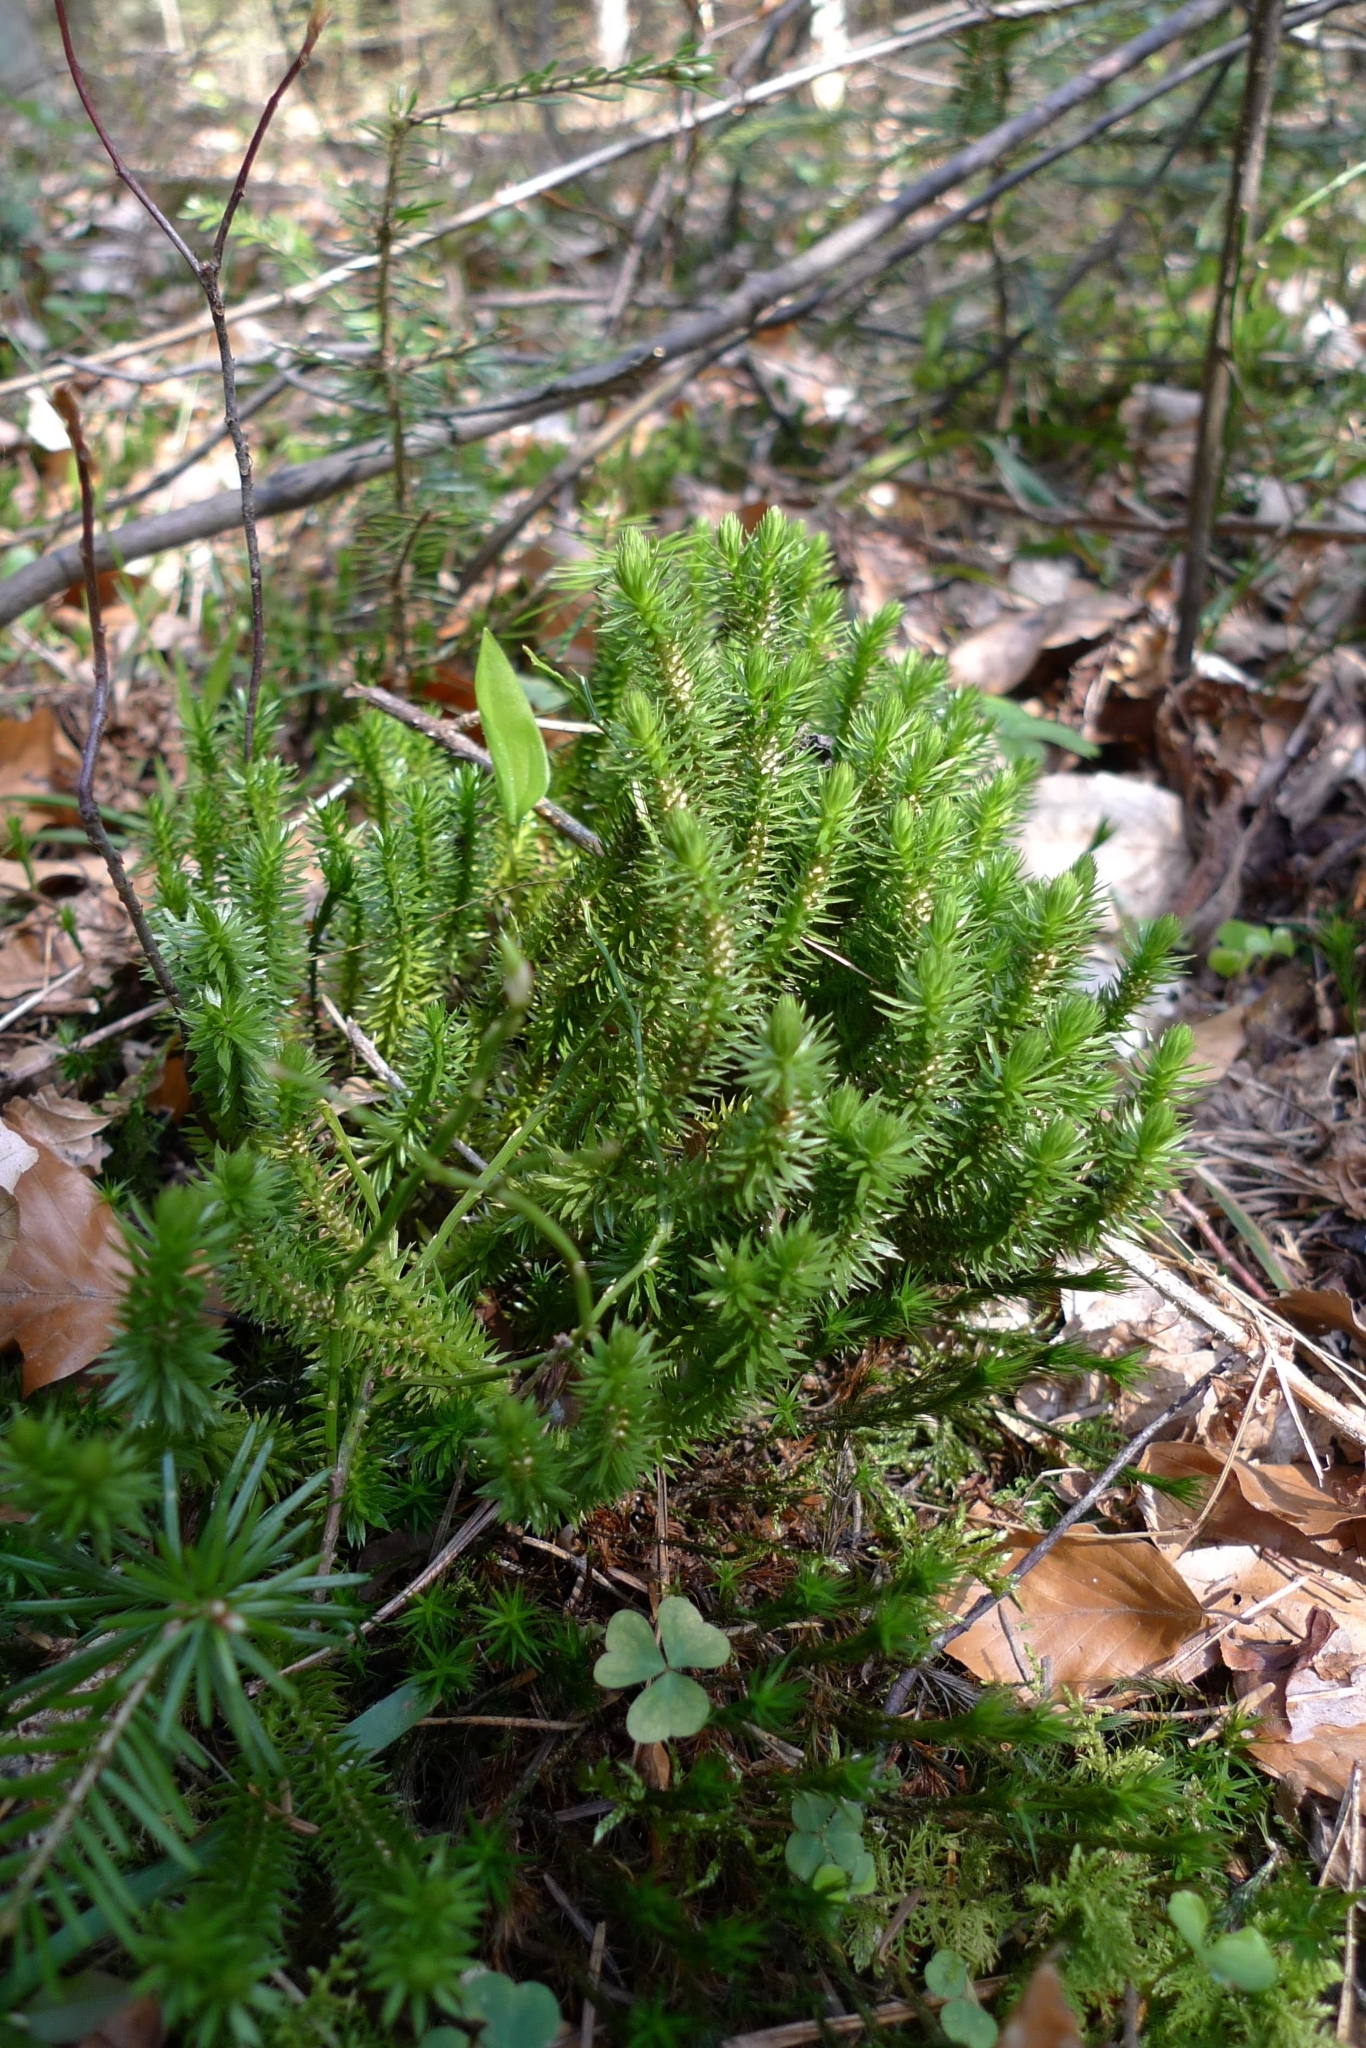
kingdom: Plantae
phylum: Tracheophyta
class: Lycopodiopsida
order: Lycopodiales
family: Lycopodiaceae
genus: Huperzia
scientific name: Huperzia selago
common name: Northern firmoss
